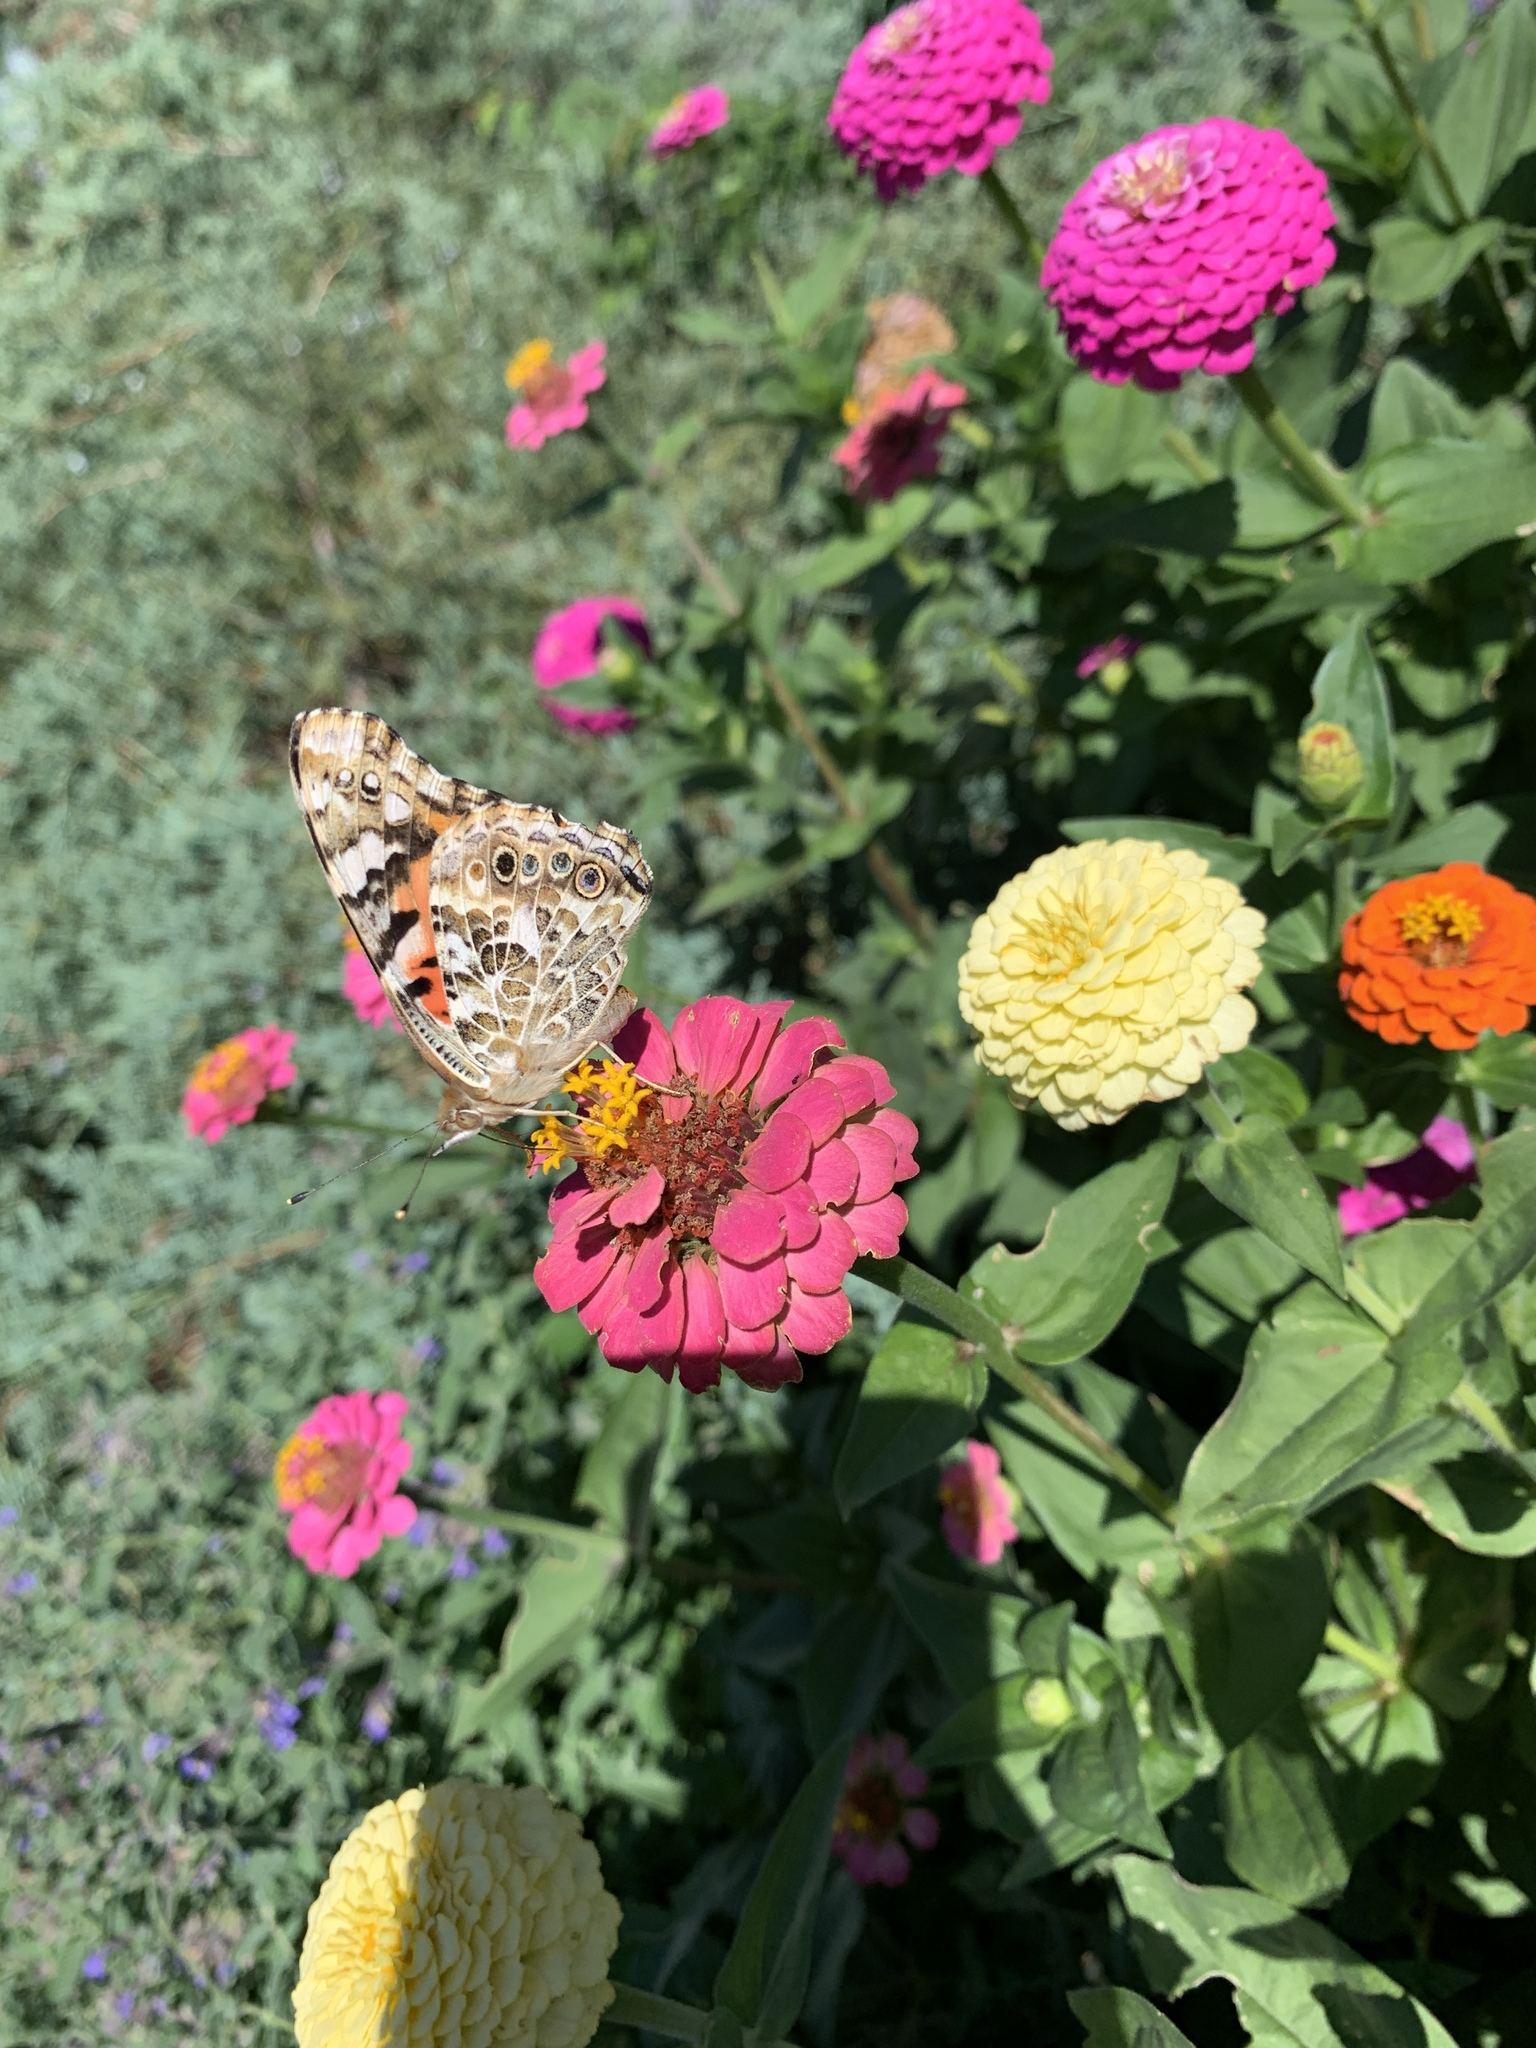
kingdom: Animalia
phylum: Arthropoda
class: Insecta
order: Lepidoptera
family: Nymphalidae
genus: Vanessa
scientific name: Vanessa cardui
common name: Painted lady
